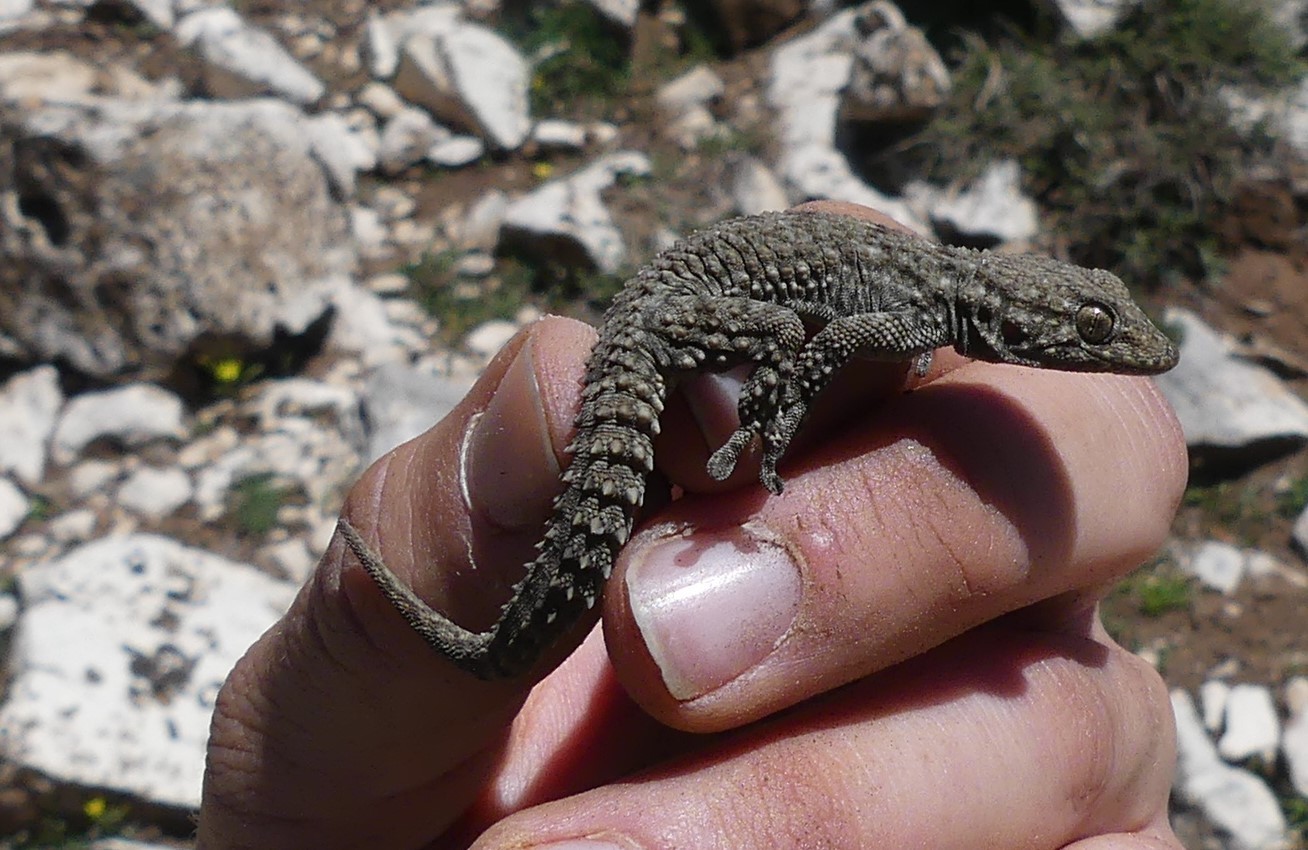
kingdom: Animalia
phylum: Chordata
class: Squamata
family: Phyllodactylidae
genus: Tarentola
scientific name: Tarentola mauritanica
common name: Moorish gecko
